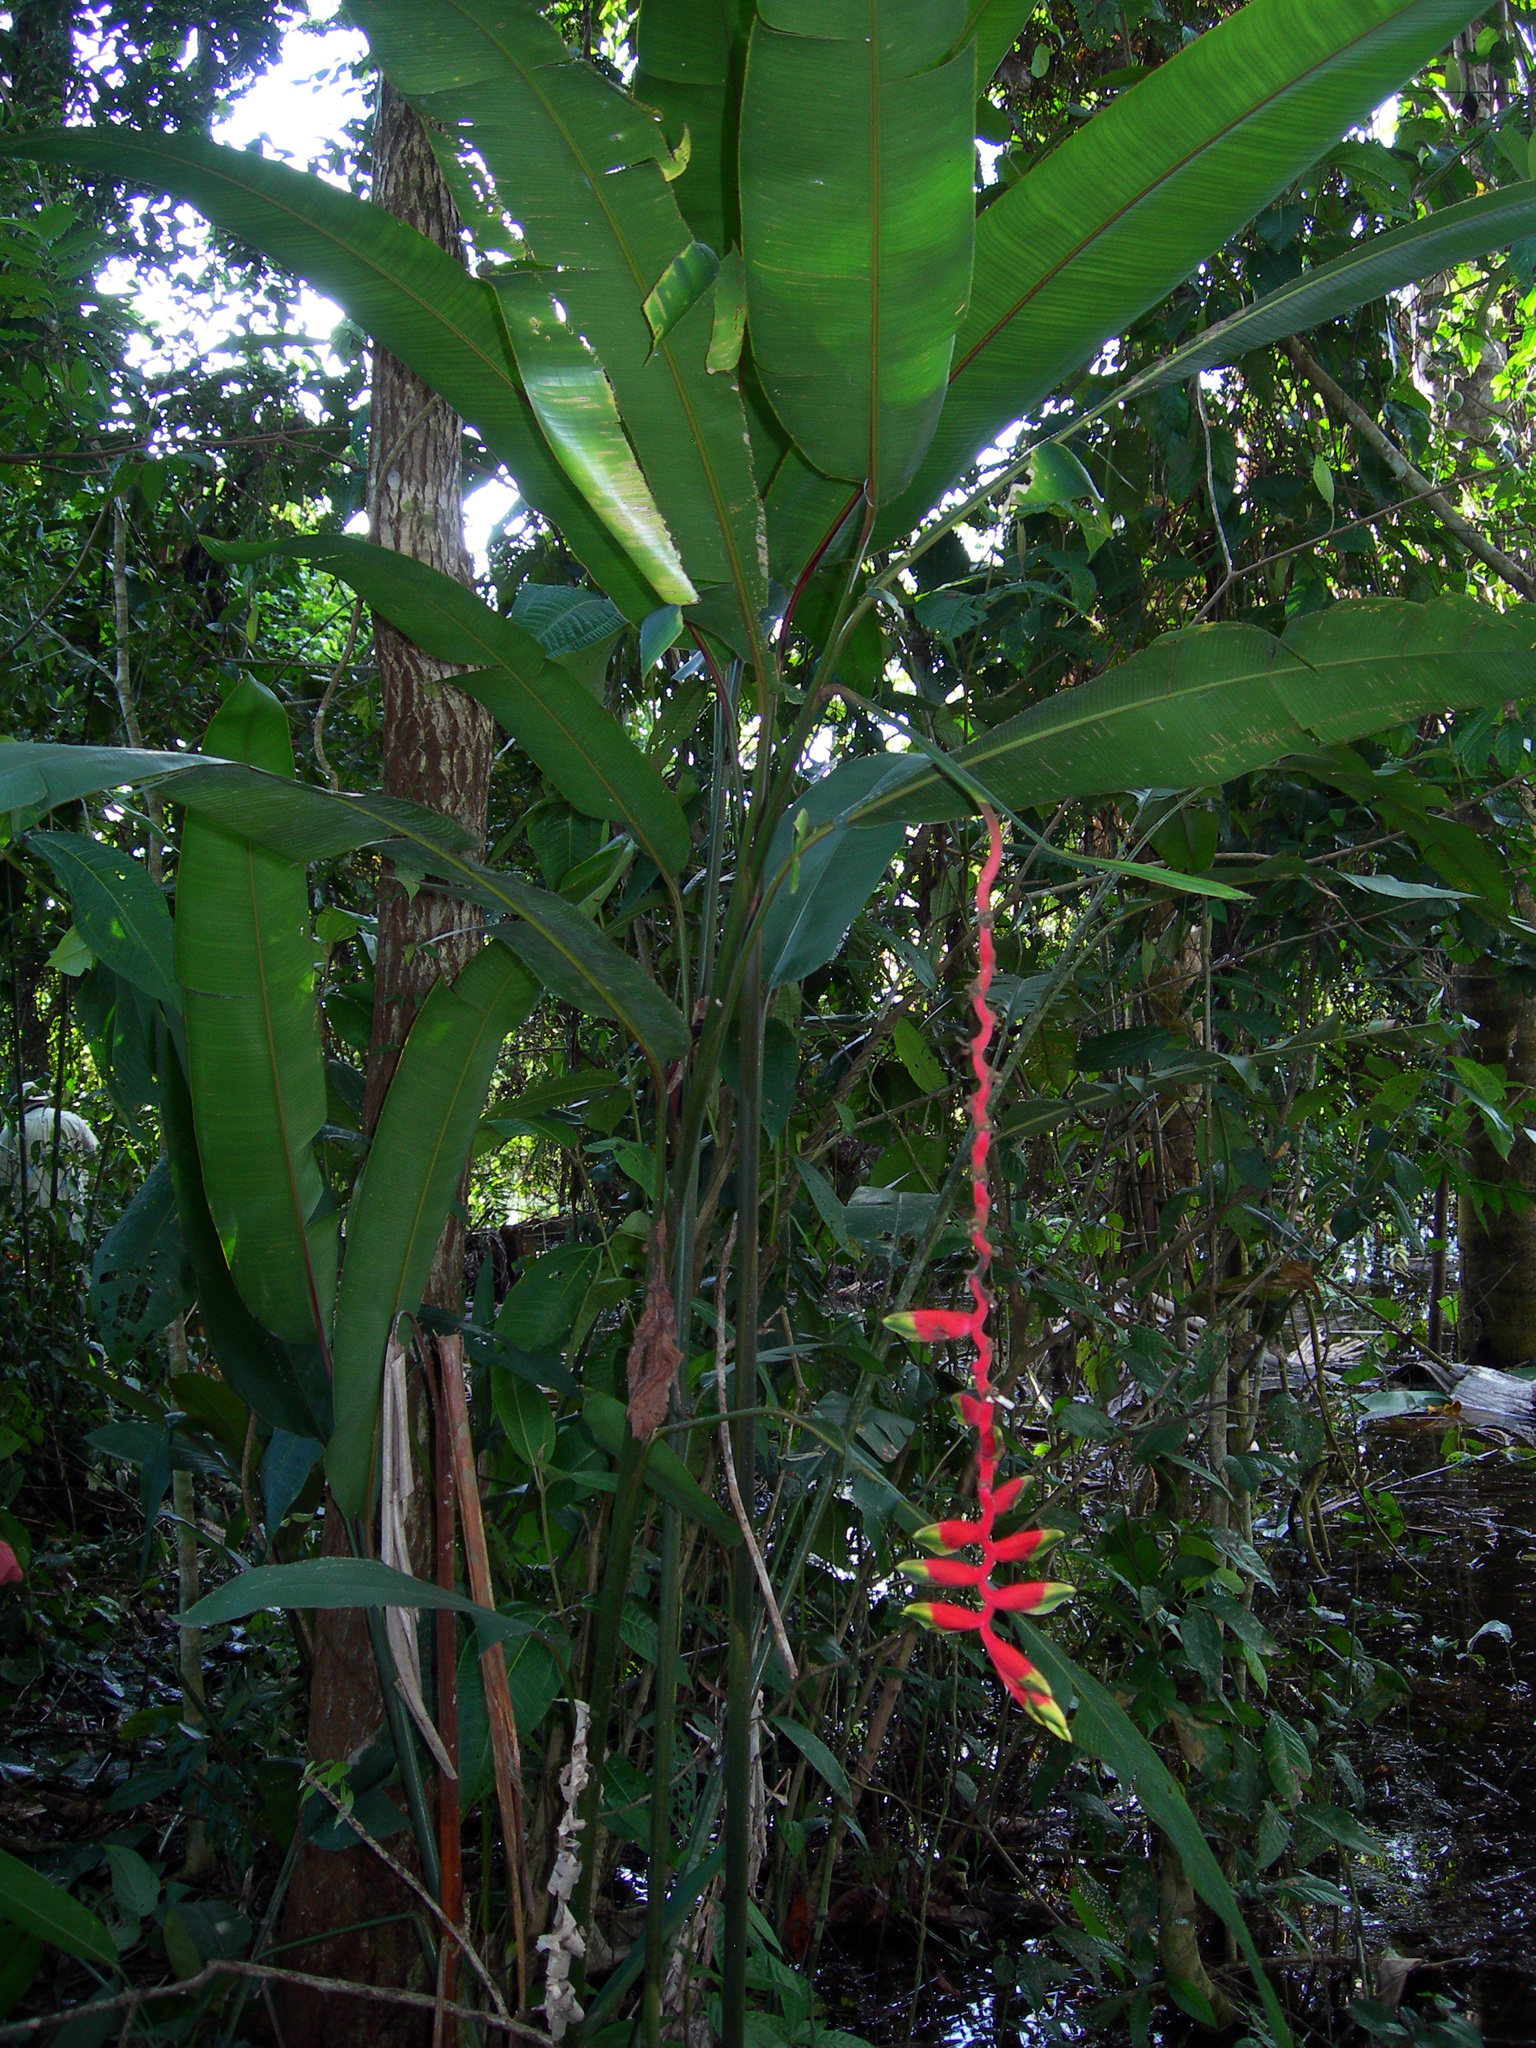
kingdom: Plantae
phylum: Tracheophyta
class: Liliopsida
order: Zingiberales
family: Heliconiaceae
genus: Heliconia
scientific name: Heliconia juruana
